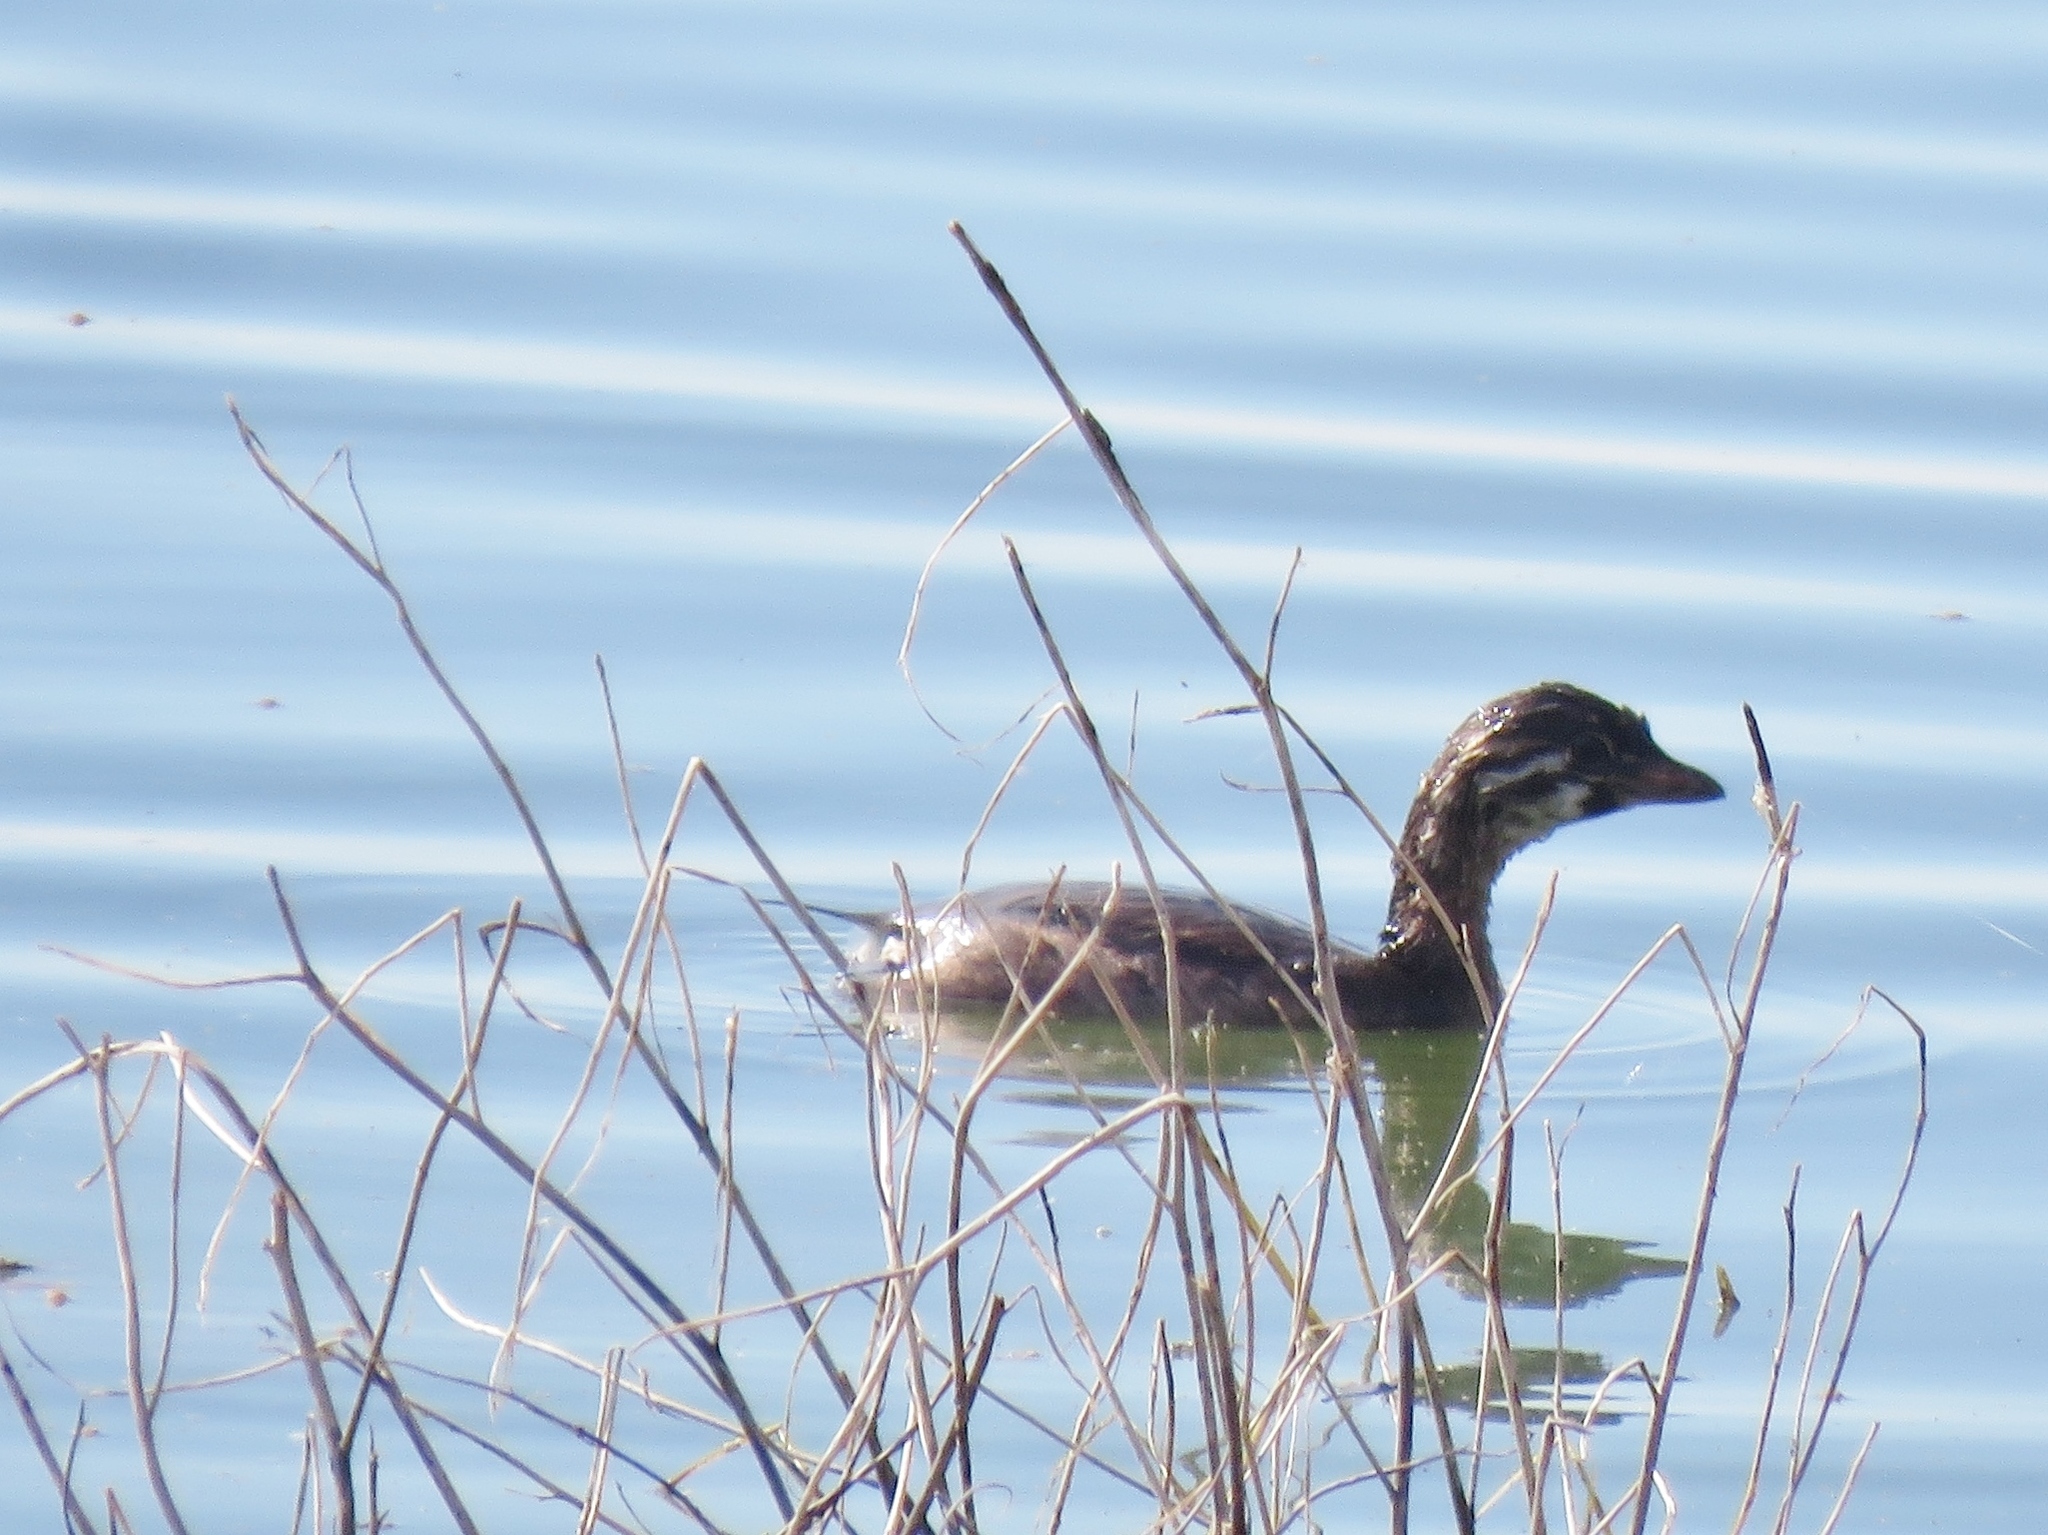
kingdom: Animalia
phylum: Chordata
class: Aves
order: Podicipediformes
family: Podicipedidae
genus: Podilymbus
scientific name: Podilymbus podiceps
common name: Pied-billed grebe
